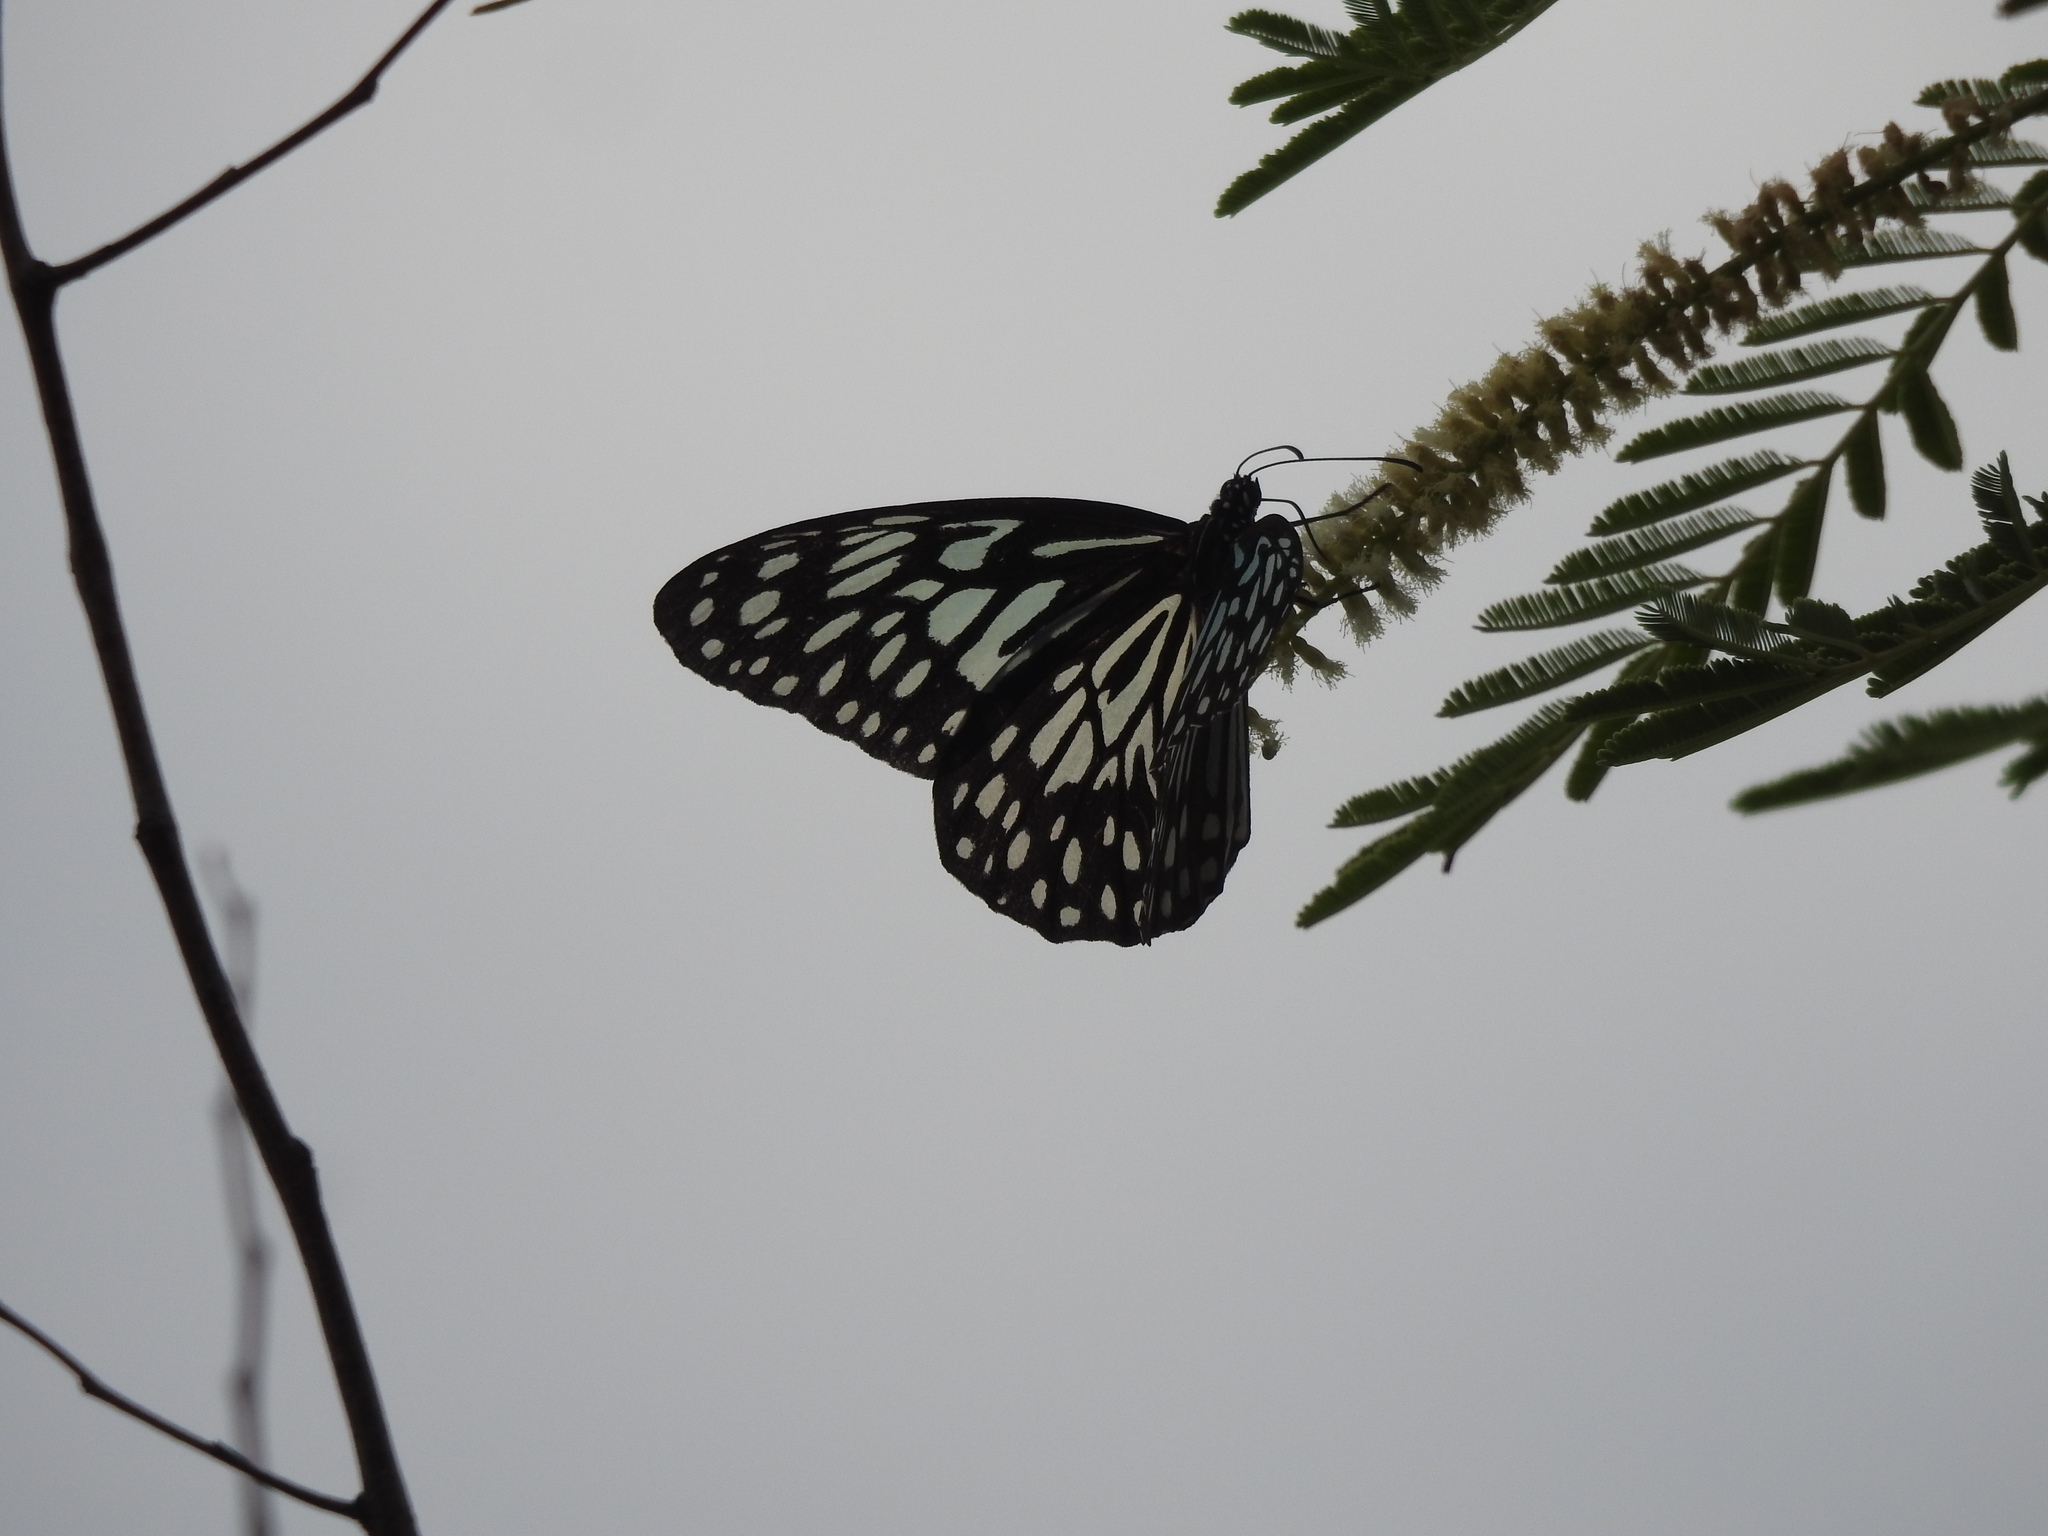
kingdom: Animalia
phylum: Arthropoda
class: Insecta
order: Lepidoptera
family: Nymphalidae
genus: Tirumala
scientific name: Tirumala septentrionis
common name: Dark blue tiger butterfly
